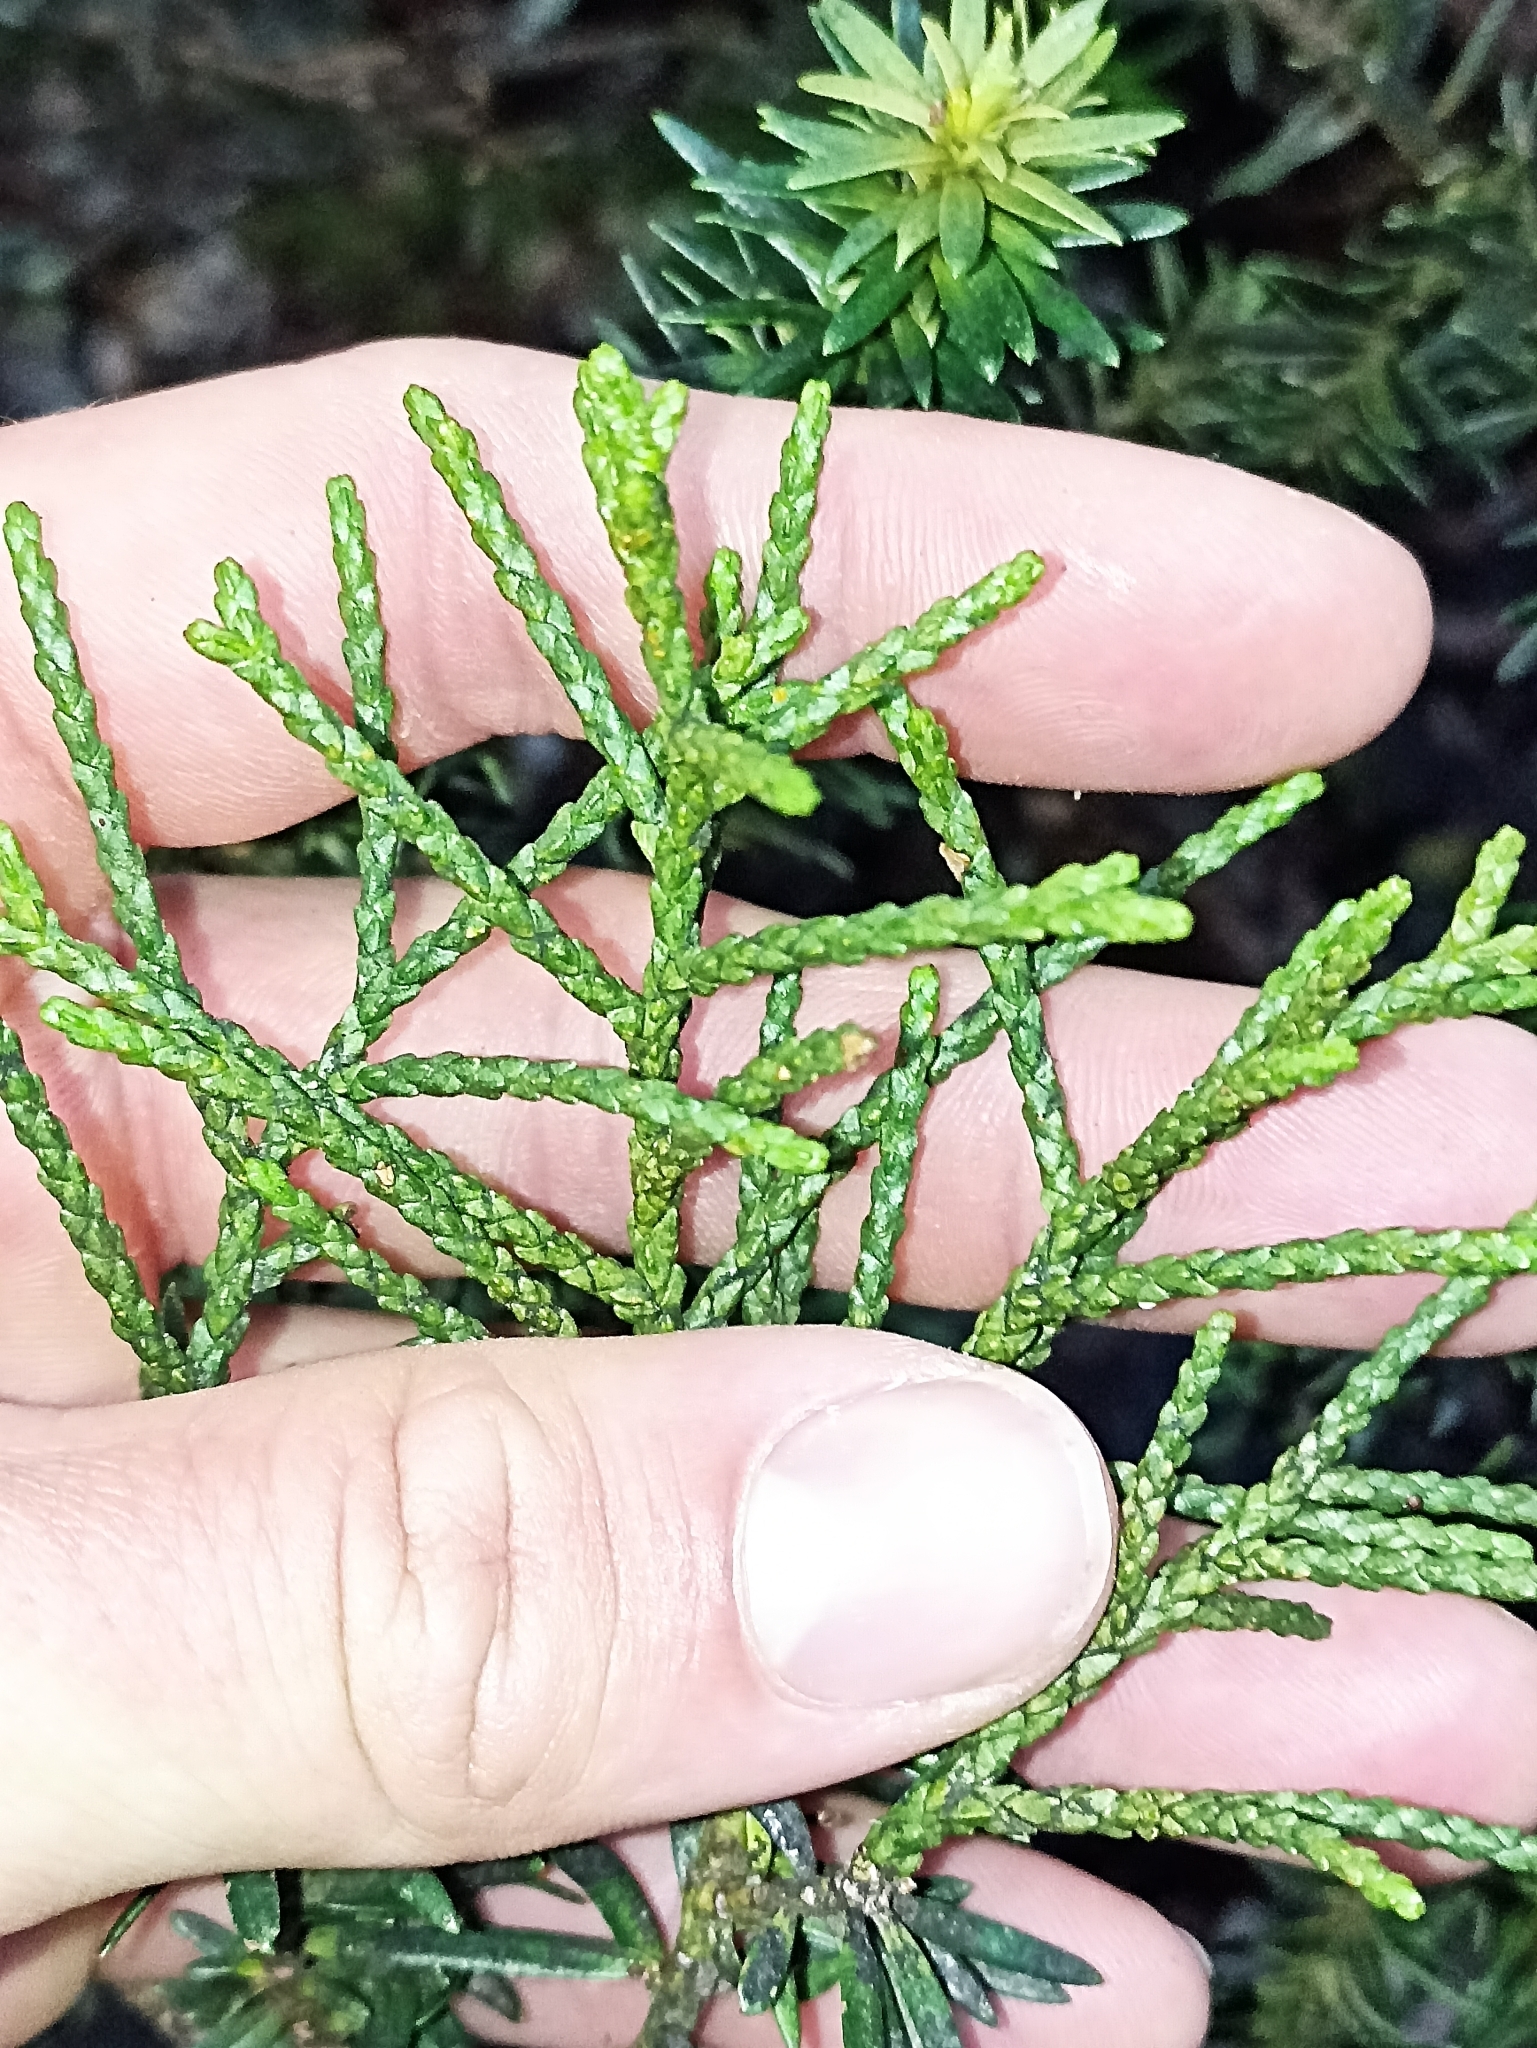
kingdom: Plantae
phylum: Tracheophyta
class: Pinopsida
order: Pinales
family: Podocarpaceae
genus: Halocarpus
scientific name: Halocarpus biformis
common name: Alpine tarwood
